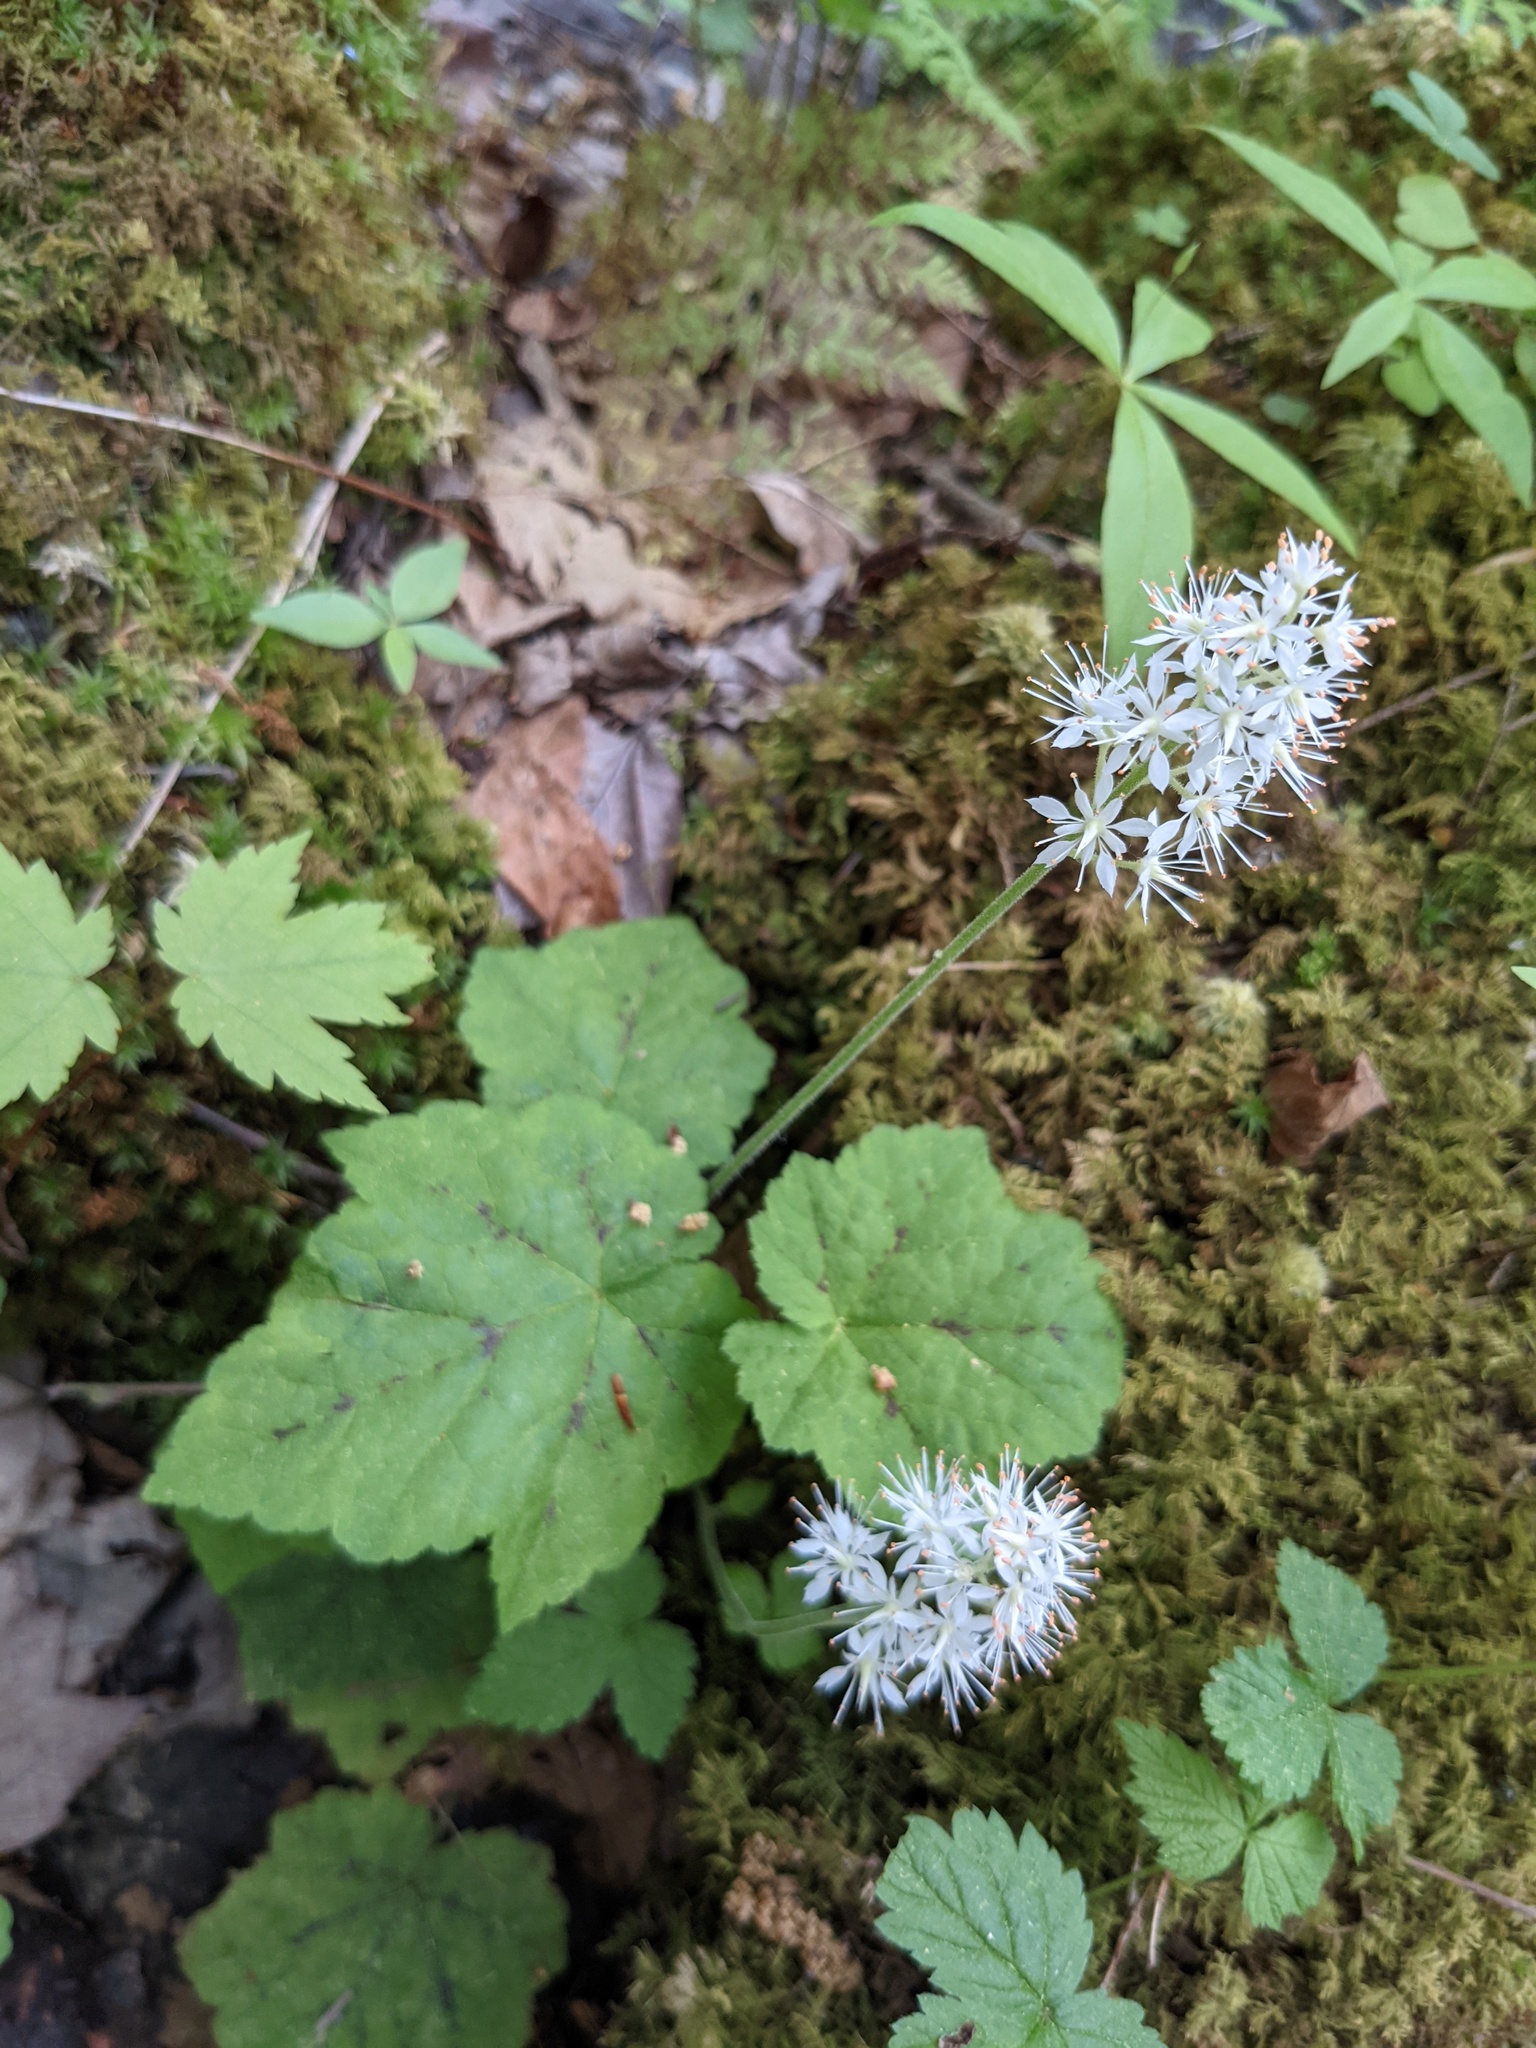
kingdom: Plantae
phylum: Tracheophyta
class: Magnoliopsida
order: Saxifragales
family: Saxifragaceae
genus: Tiarella
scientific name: Tiarella stolonifera
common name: Stoloniferous foamflower
